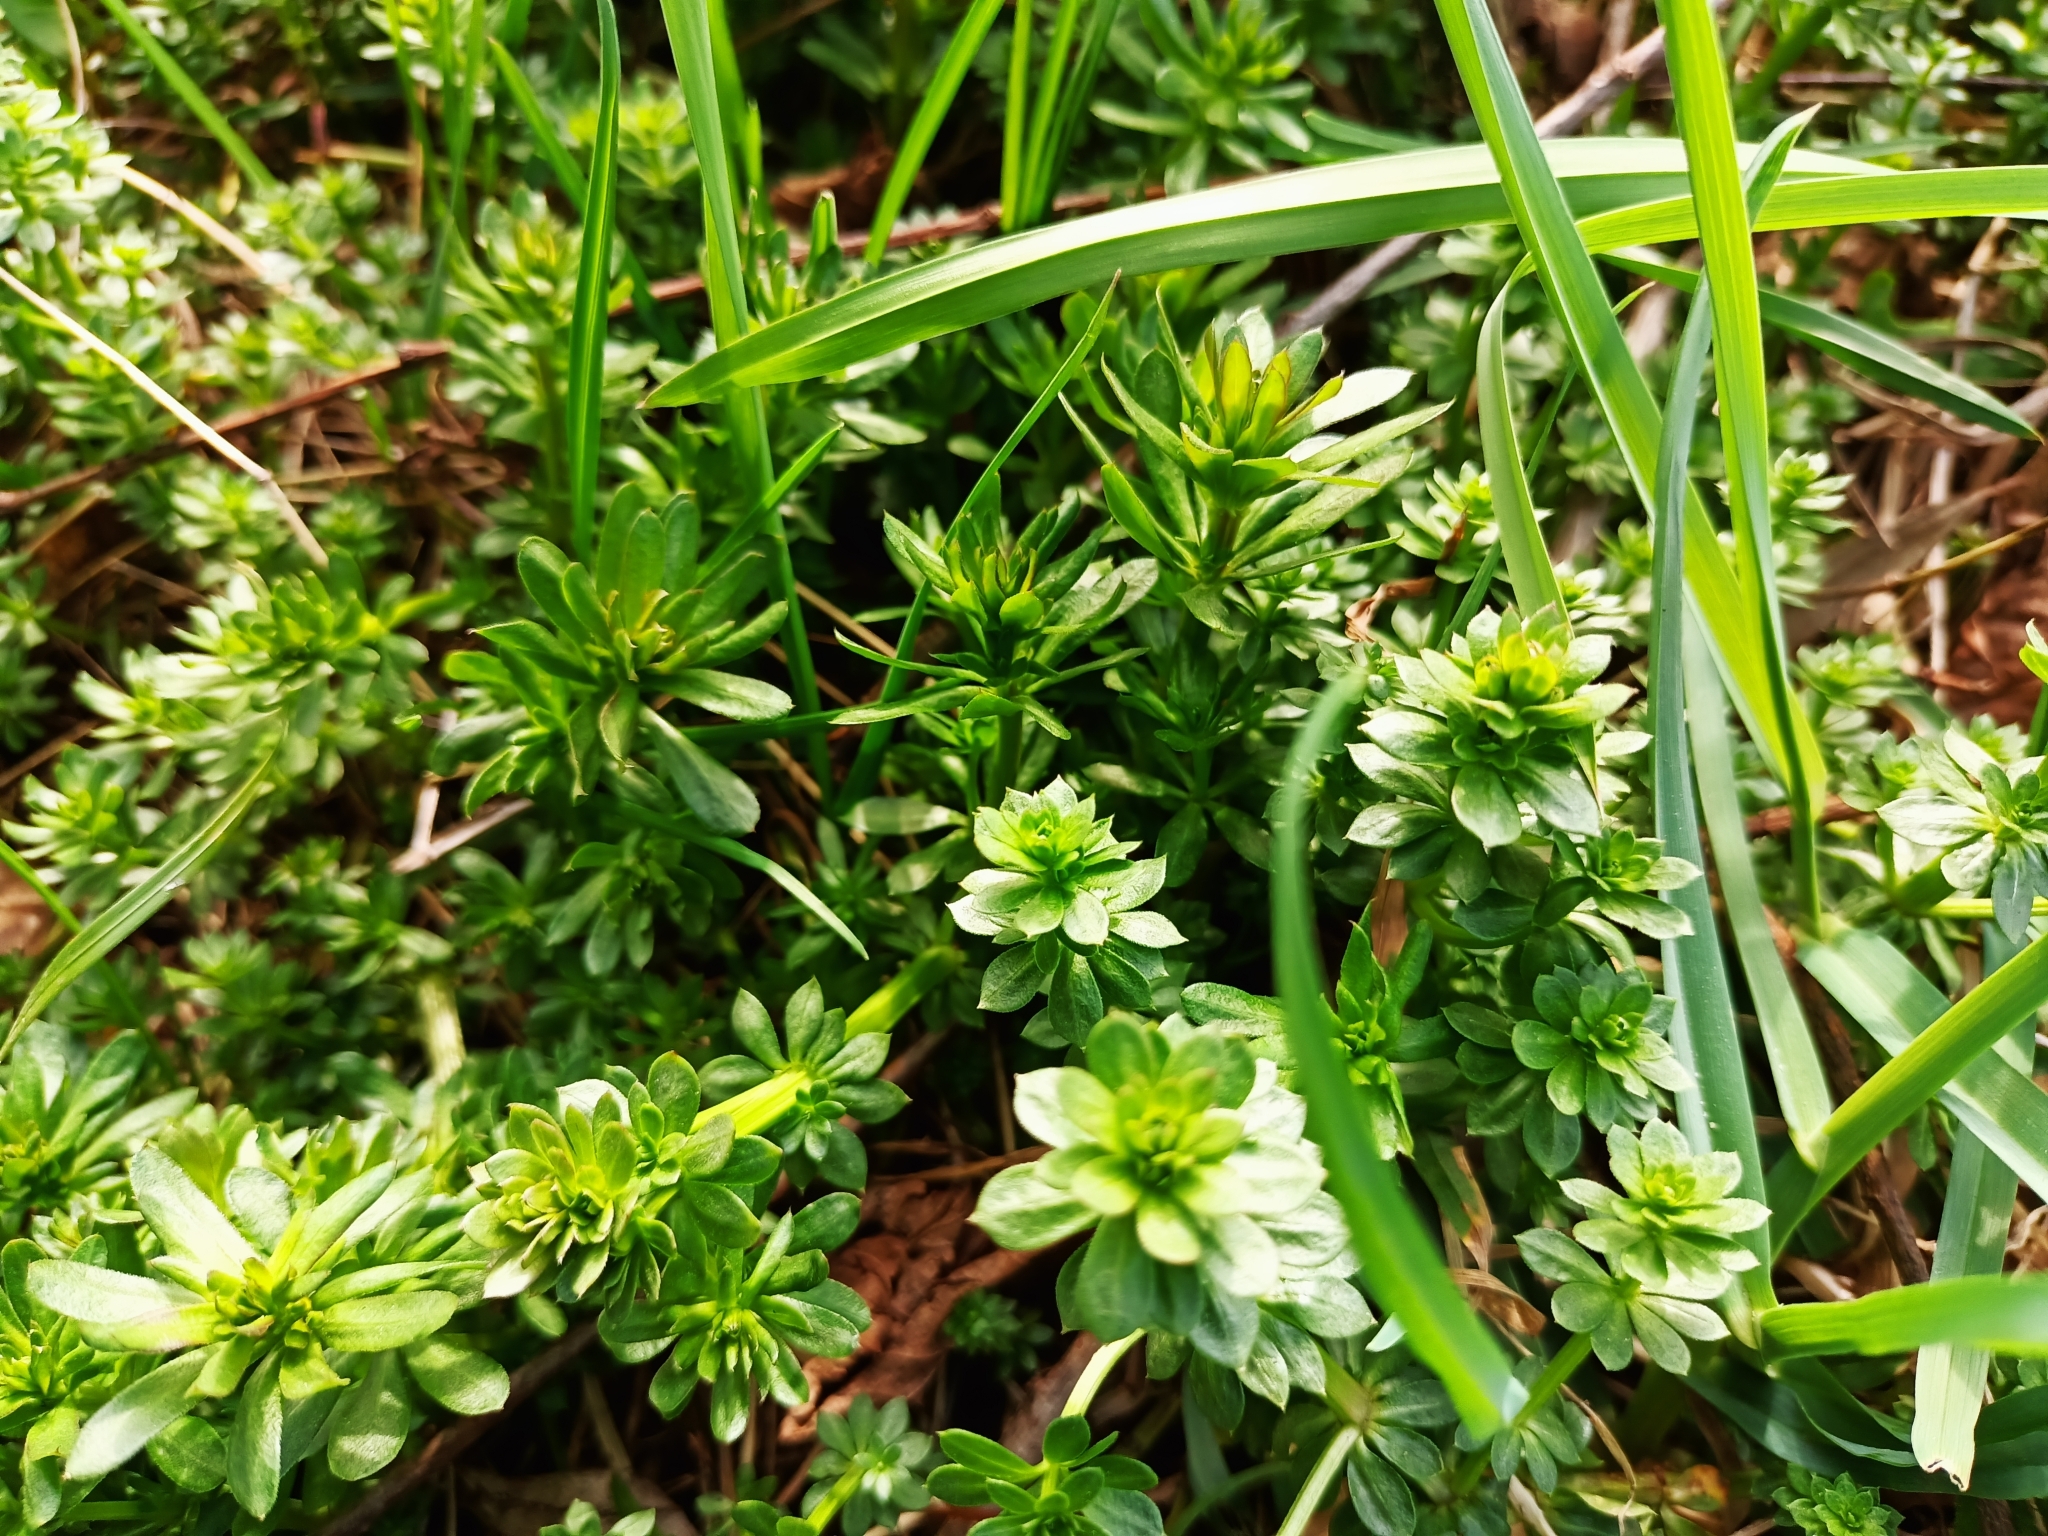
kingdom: Plantae
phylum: Tracheophyta
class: Magnoliopsida
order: Gentianales
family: Rubiaceae
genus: Galium
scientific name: Galium mollugo
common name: Hedge bedstraw
